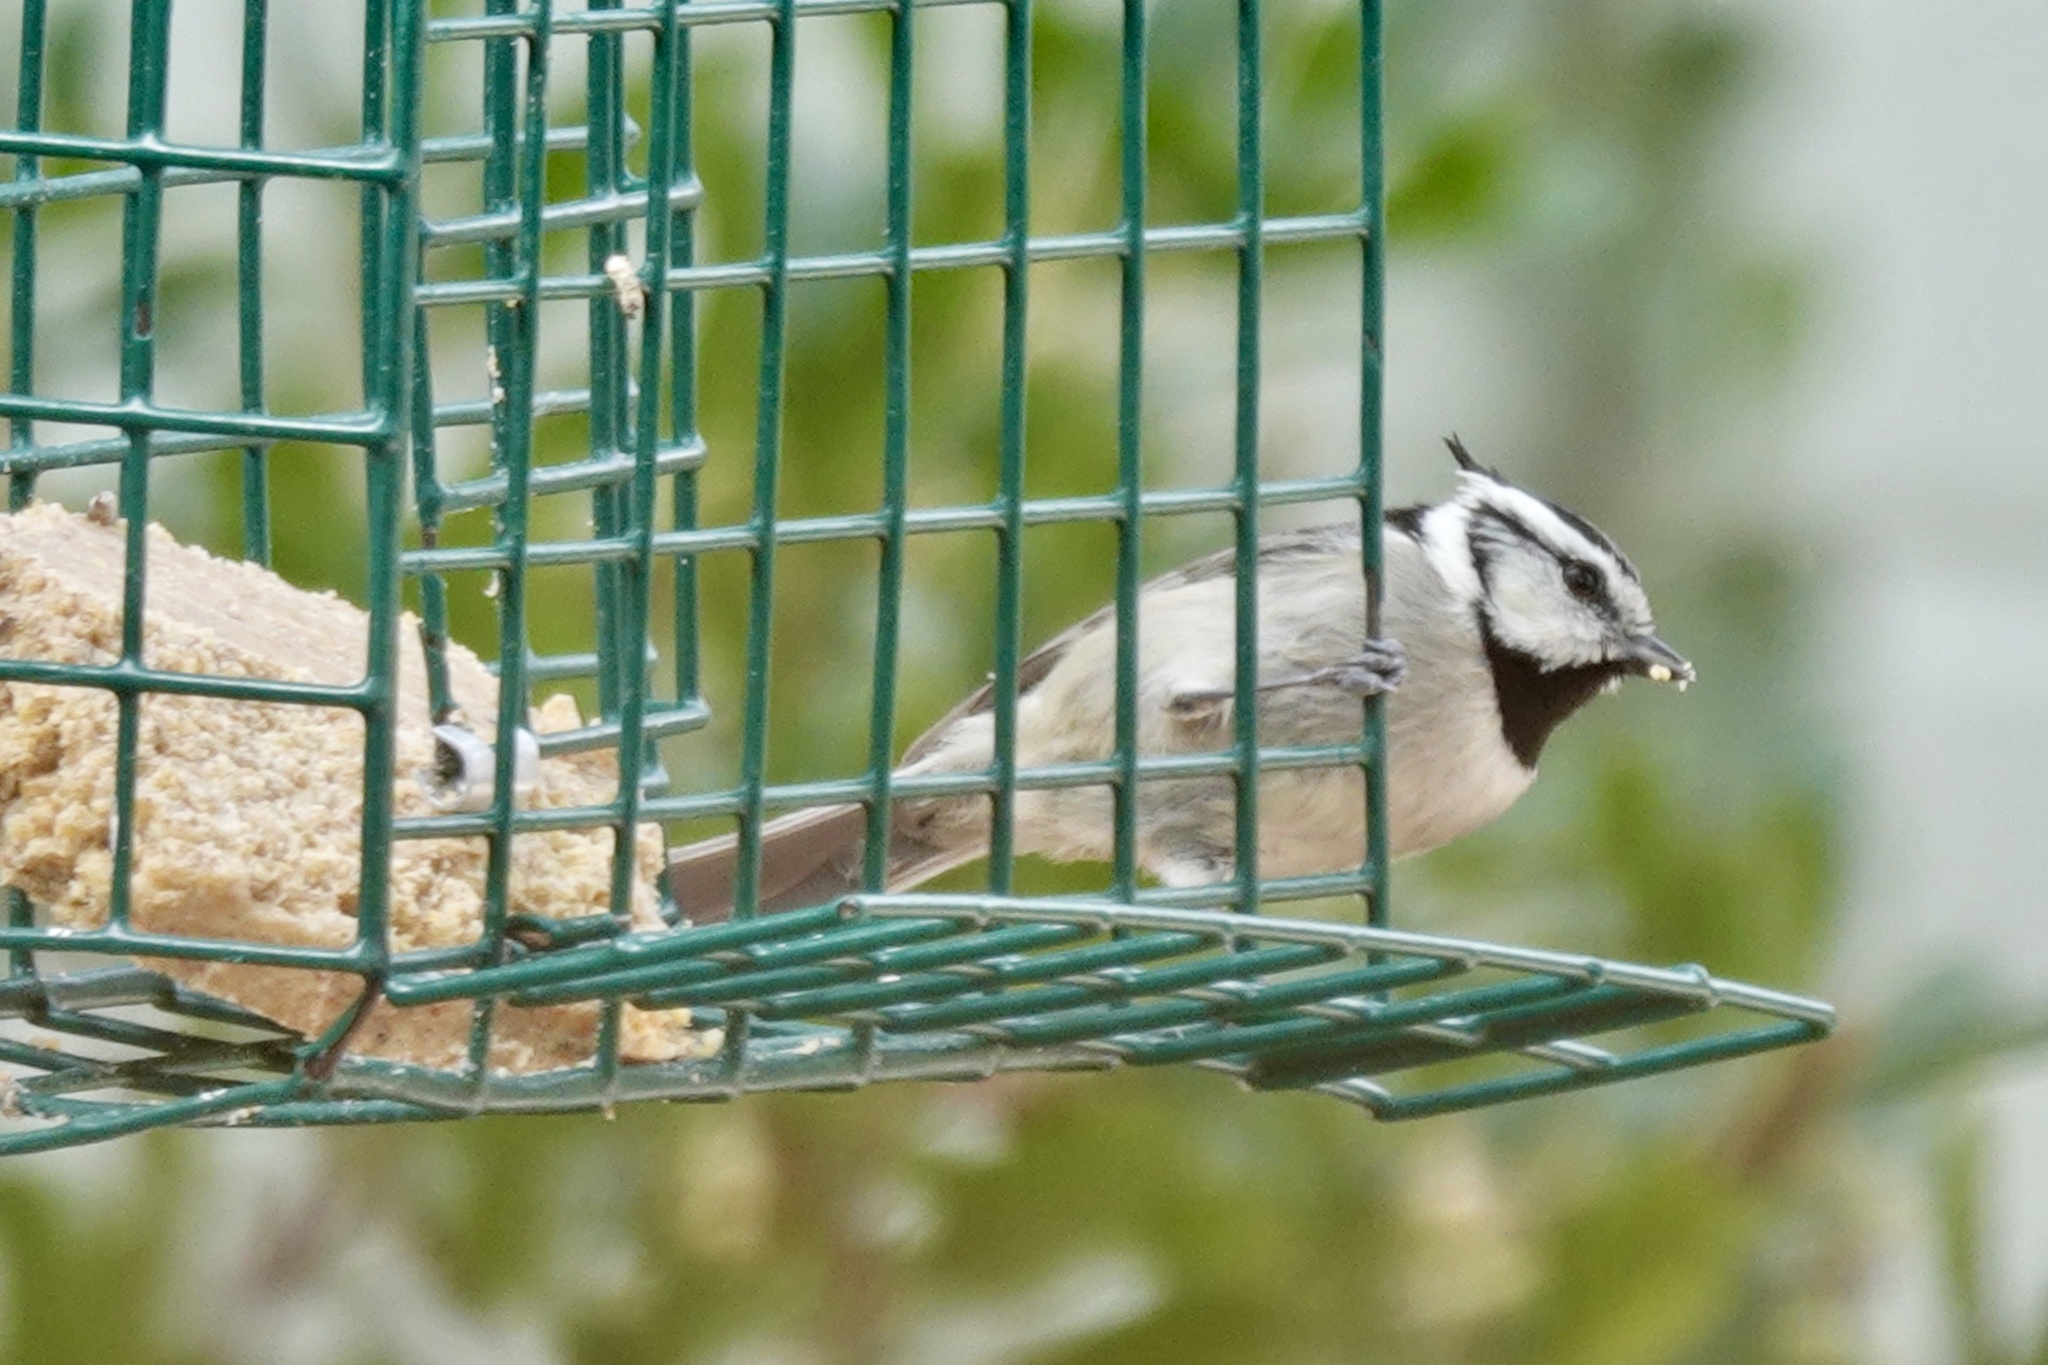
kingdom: Animalia
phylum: Chordata
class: Aves
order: Passeriformes
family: Paridae
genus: Baeolophus
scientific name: Baeolophus wollweberi
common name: Bridled titmouse
